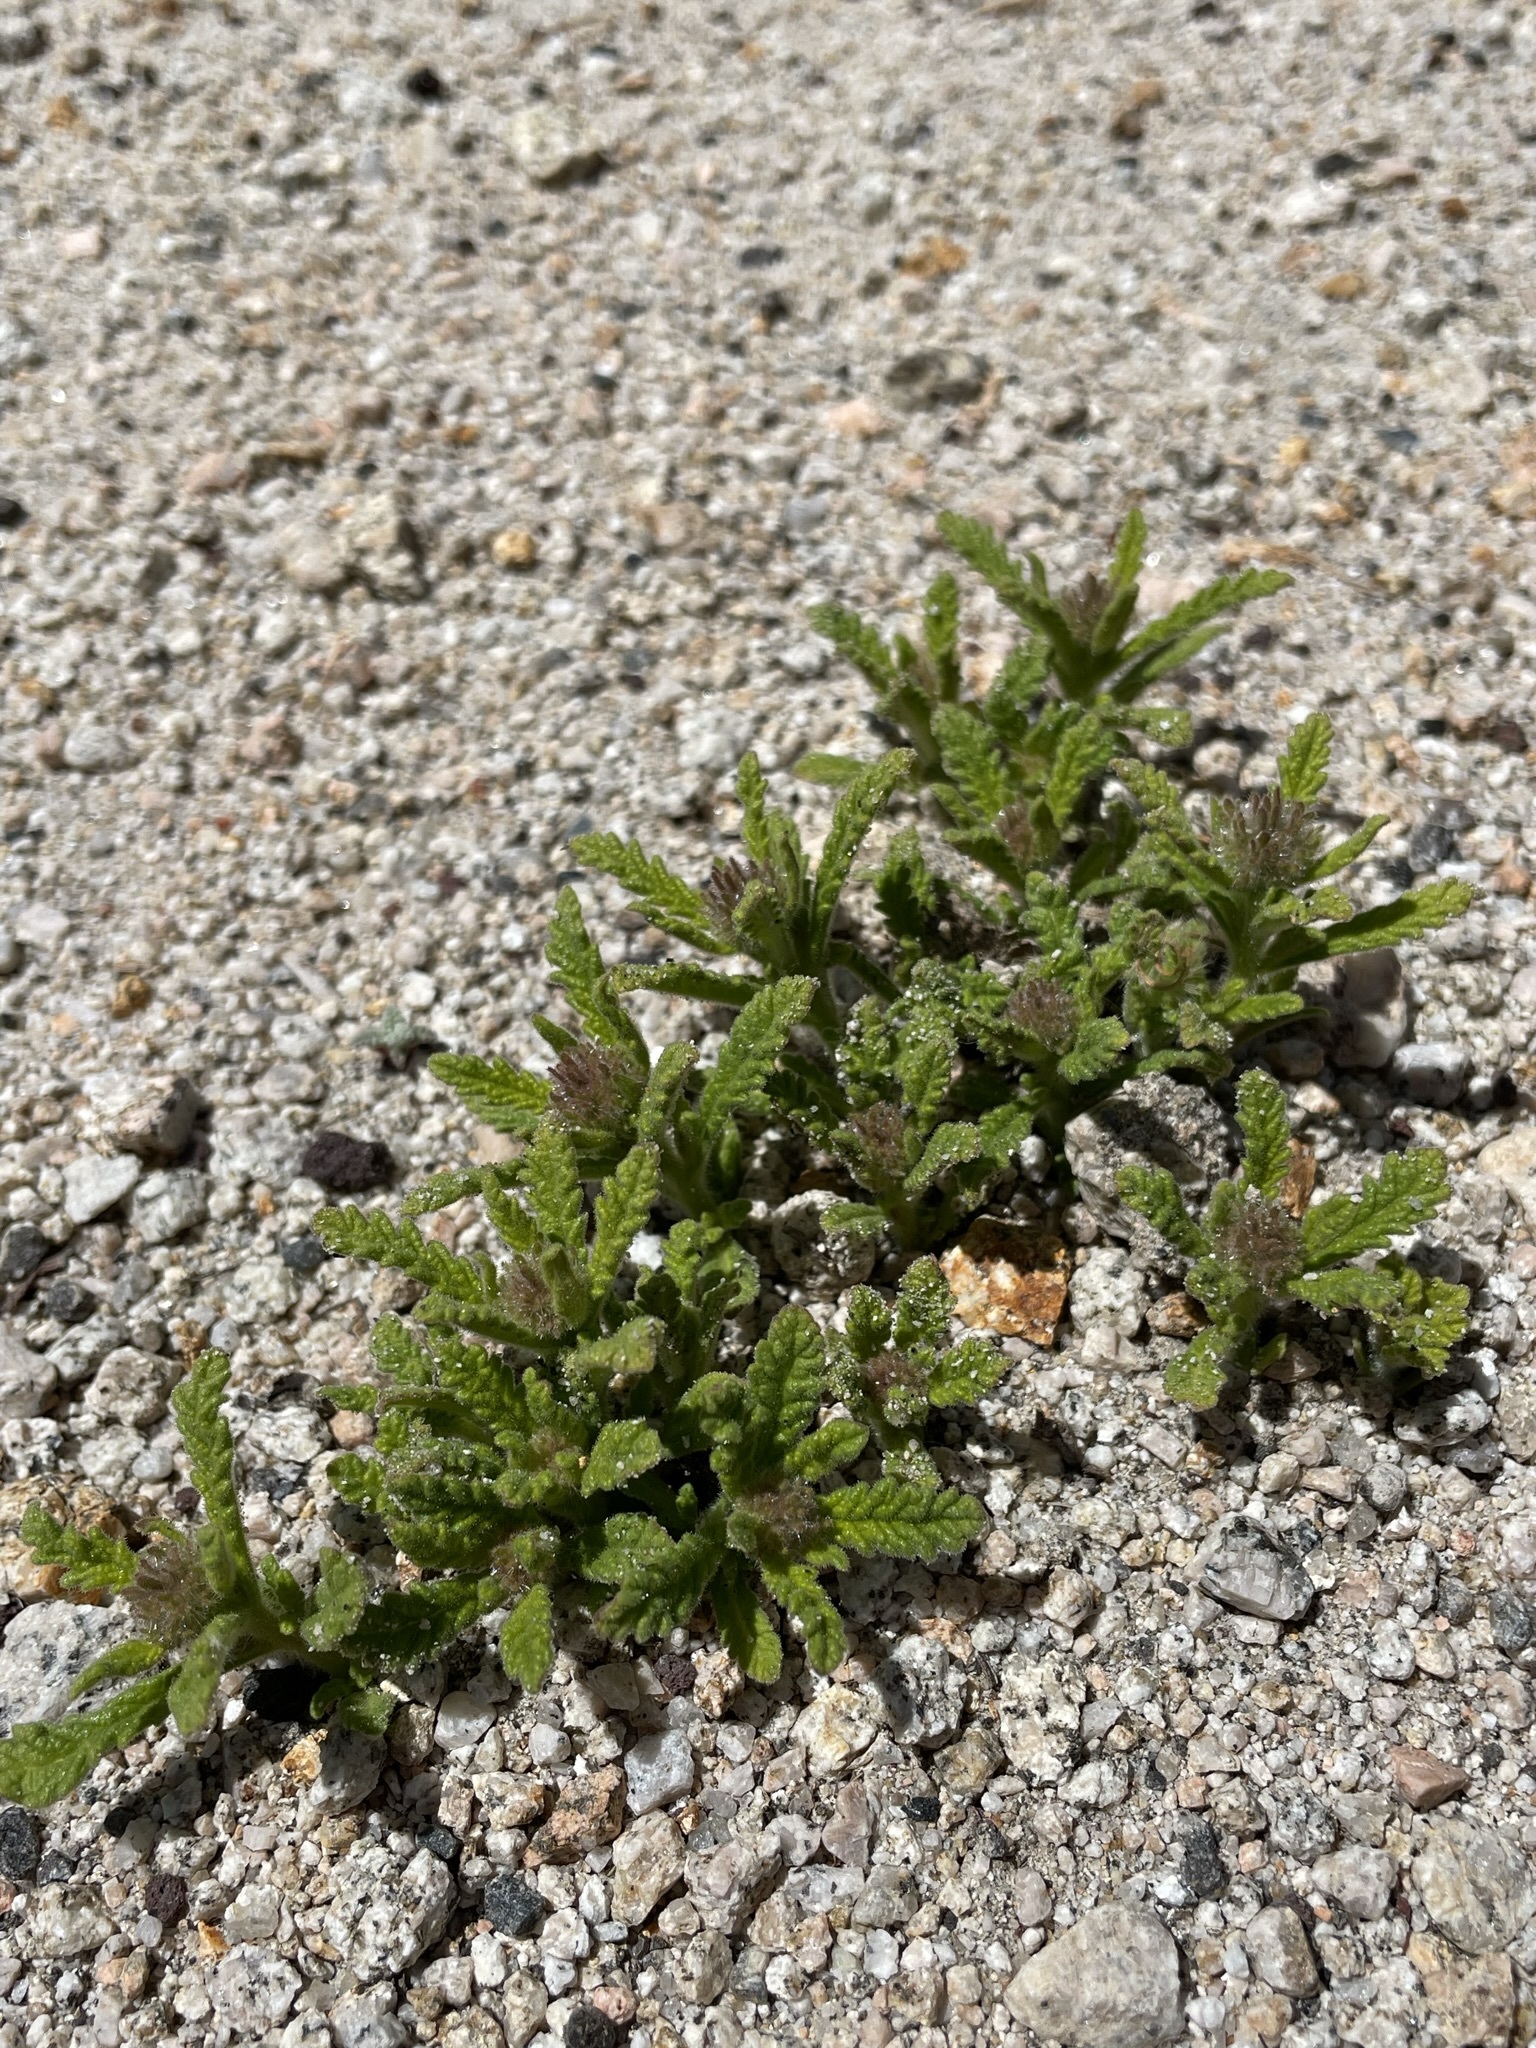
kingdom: Plantae
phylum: Tracheophyta
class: Magnoliopsida
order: Boraginales
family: Namaceae
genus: Nama
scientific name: Nama rothrockii
